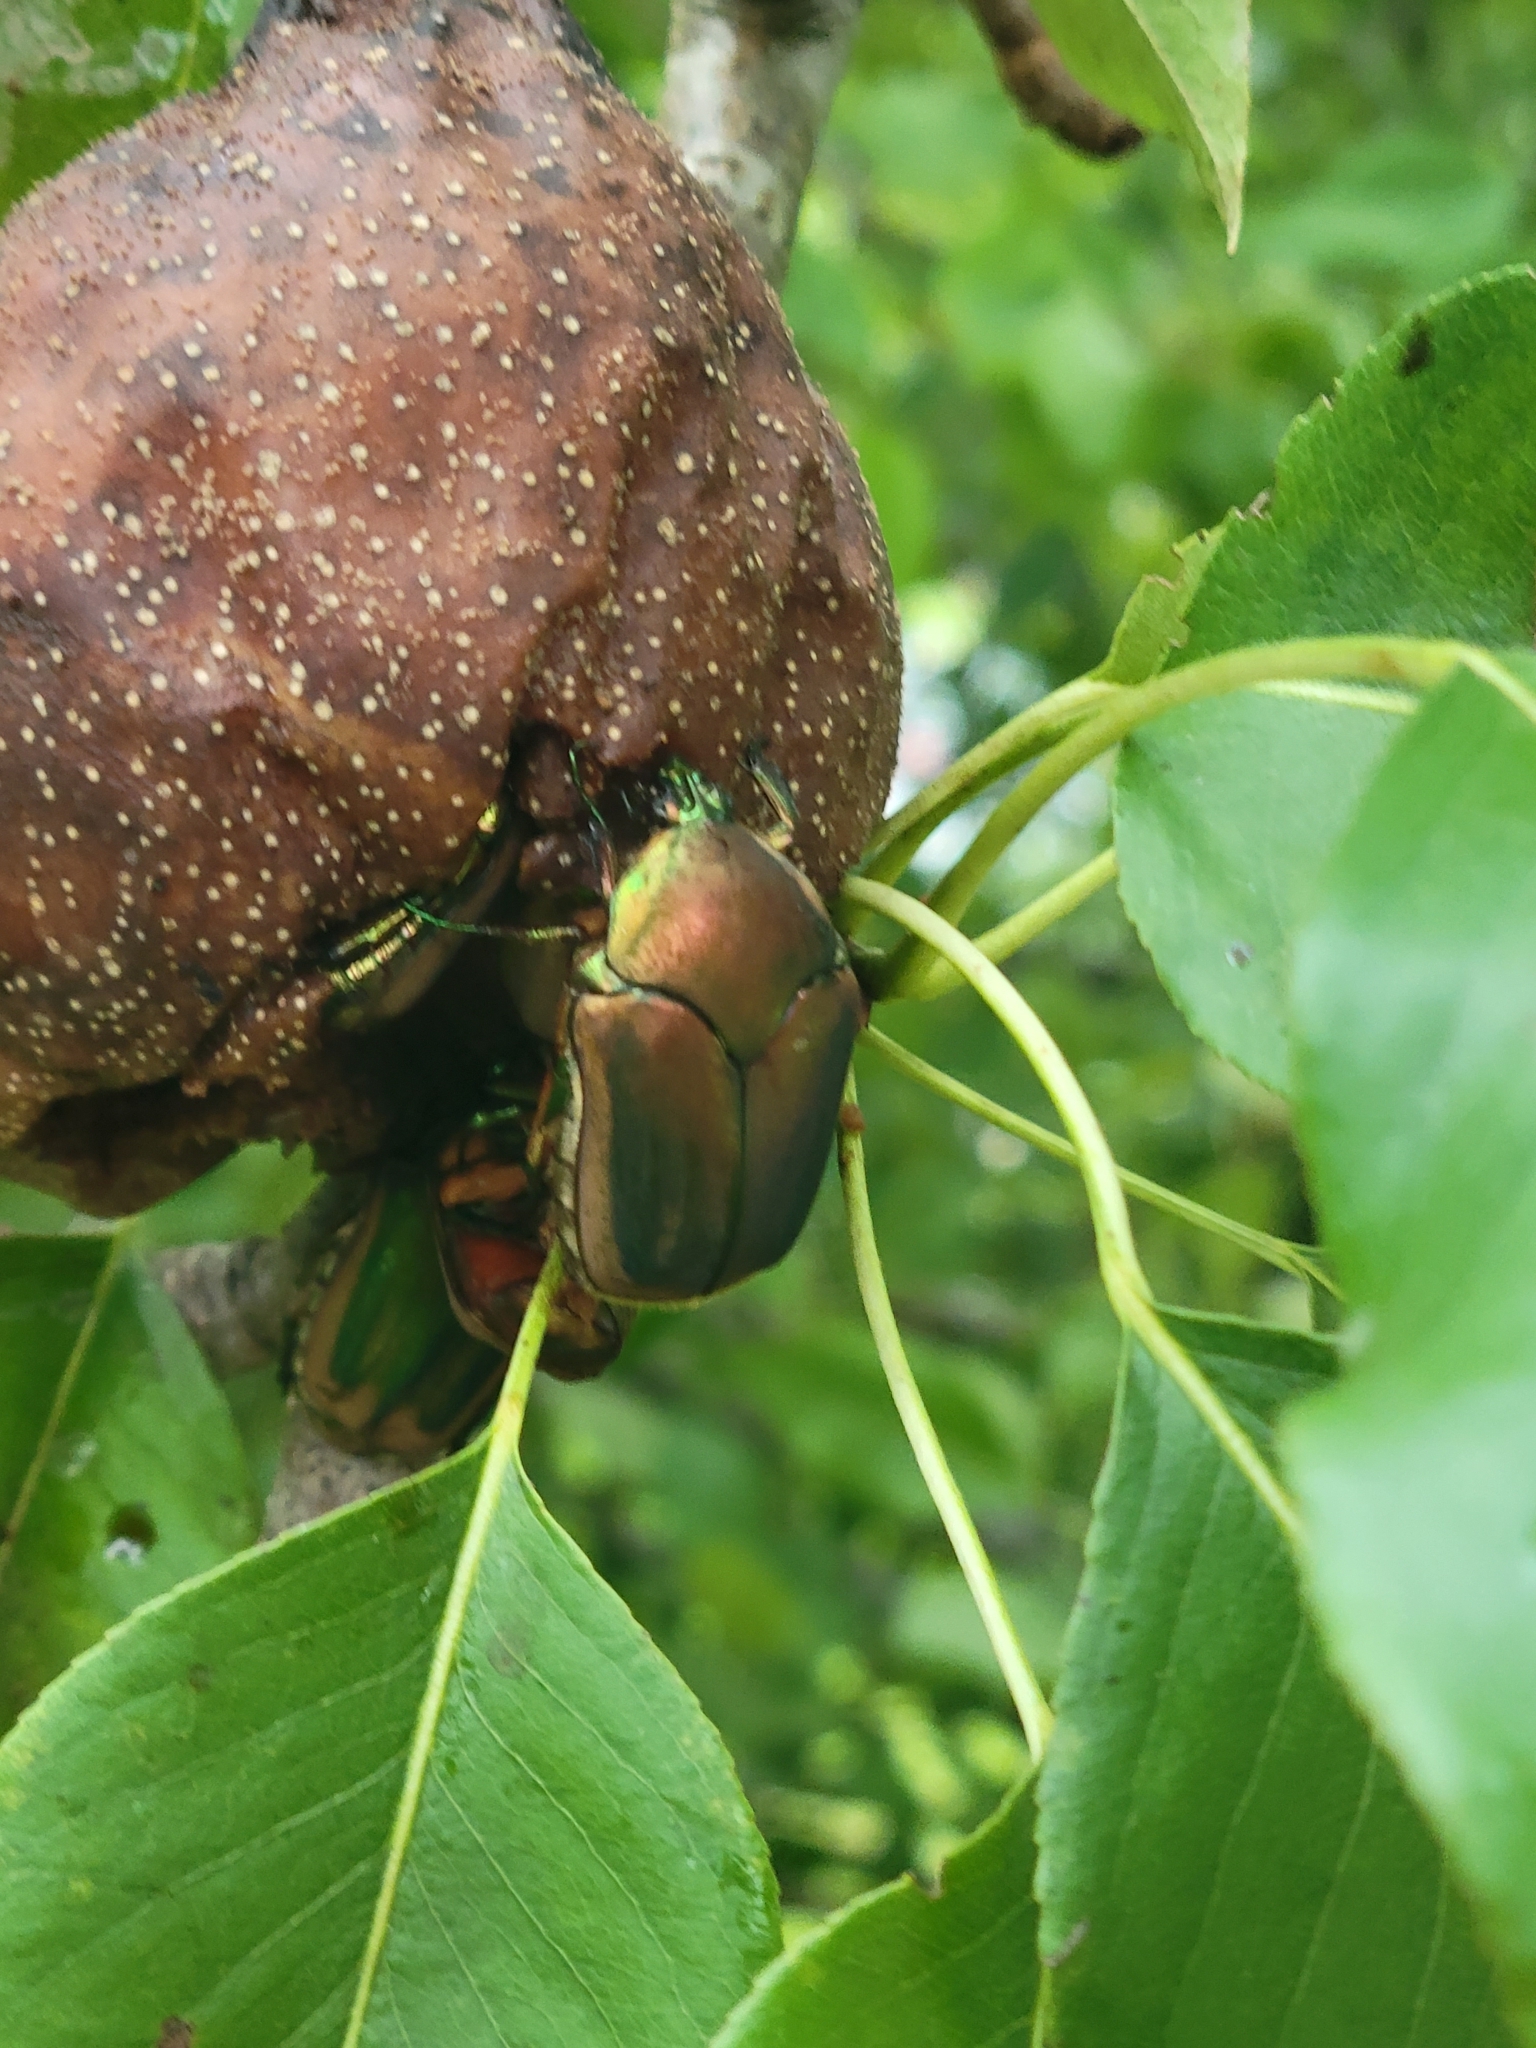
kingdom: Animalia
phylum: Arthropoda
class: Insecta
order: Coleoptera
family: Scarabaeidae
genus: Cotinis
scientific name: Cotinis nitida
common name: Common green june beetle
